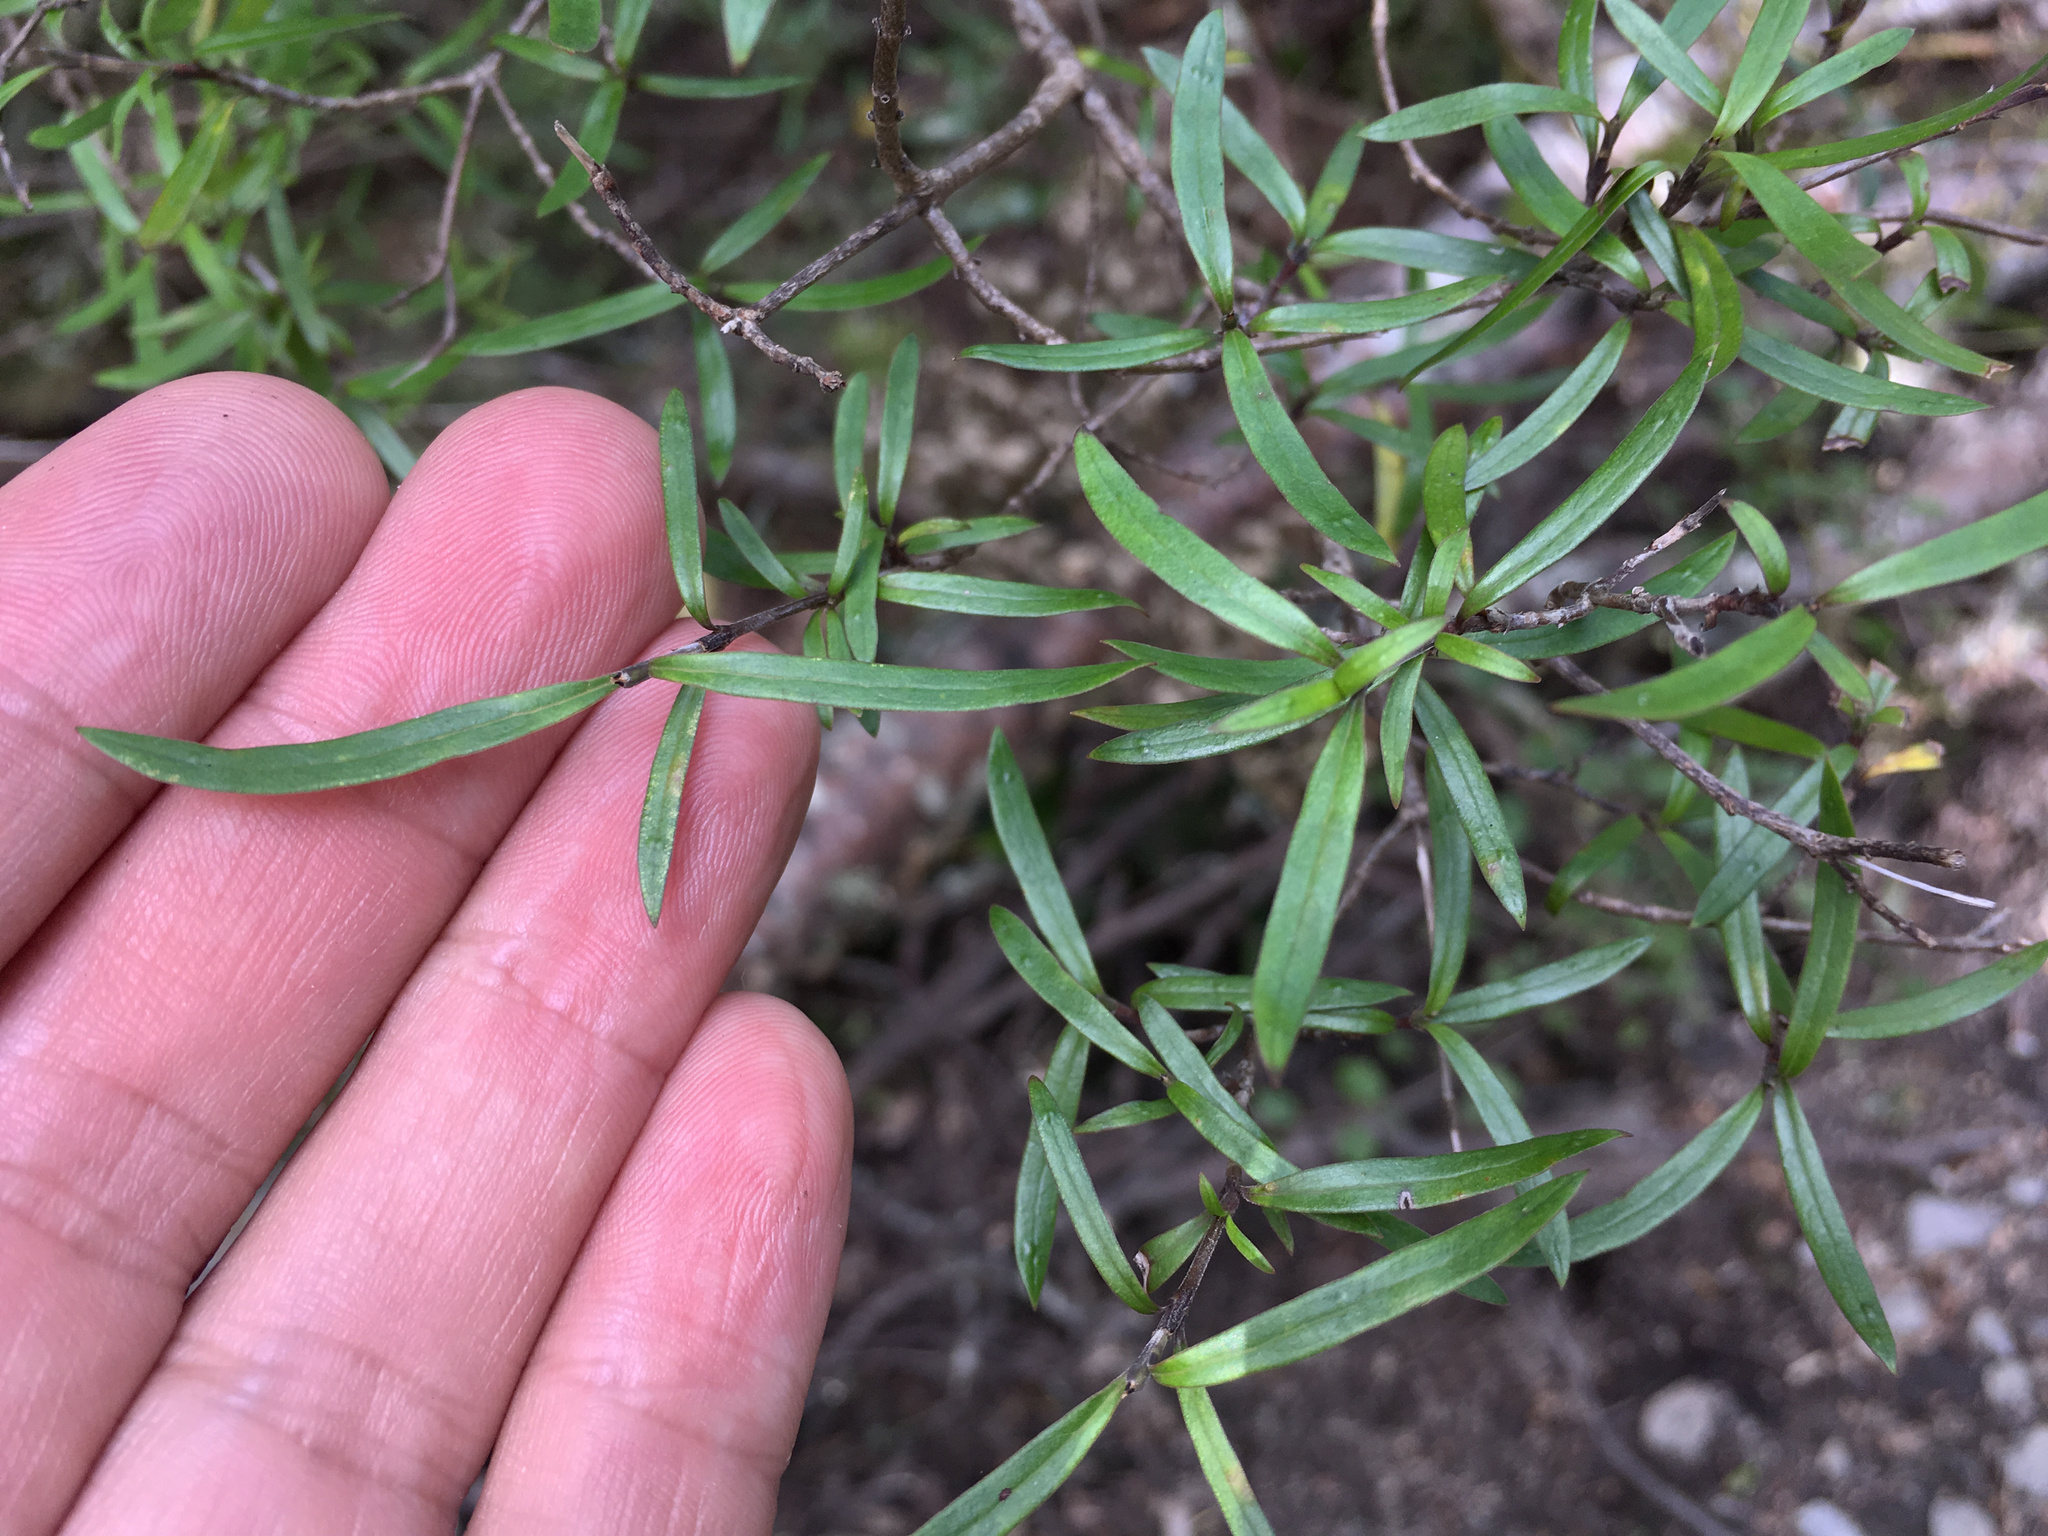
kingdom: Plantae
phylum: Tracheophyta
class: Magnoliopsida
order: Gentianales
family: Rubiaceae
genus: Coprosma
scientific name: Coprosma linariifolia
